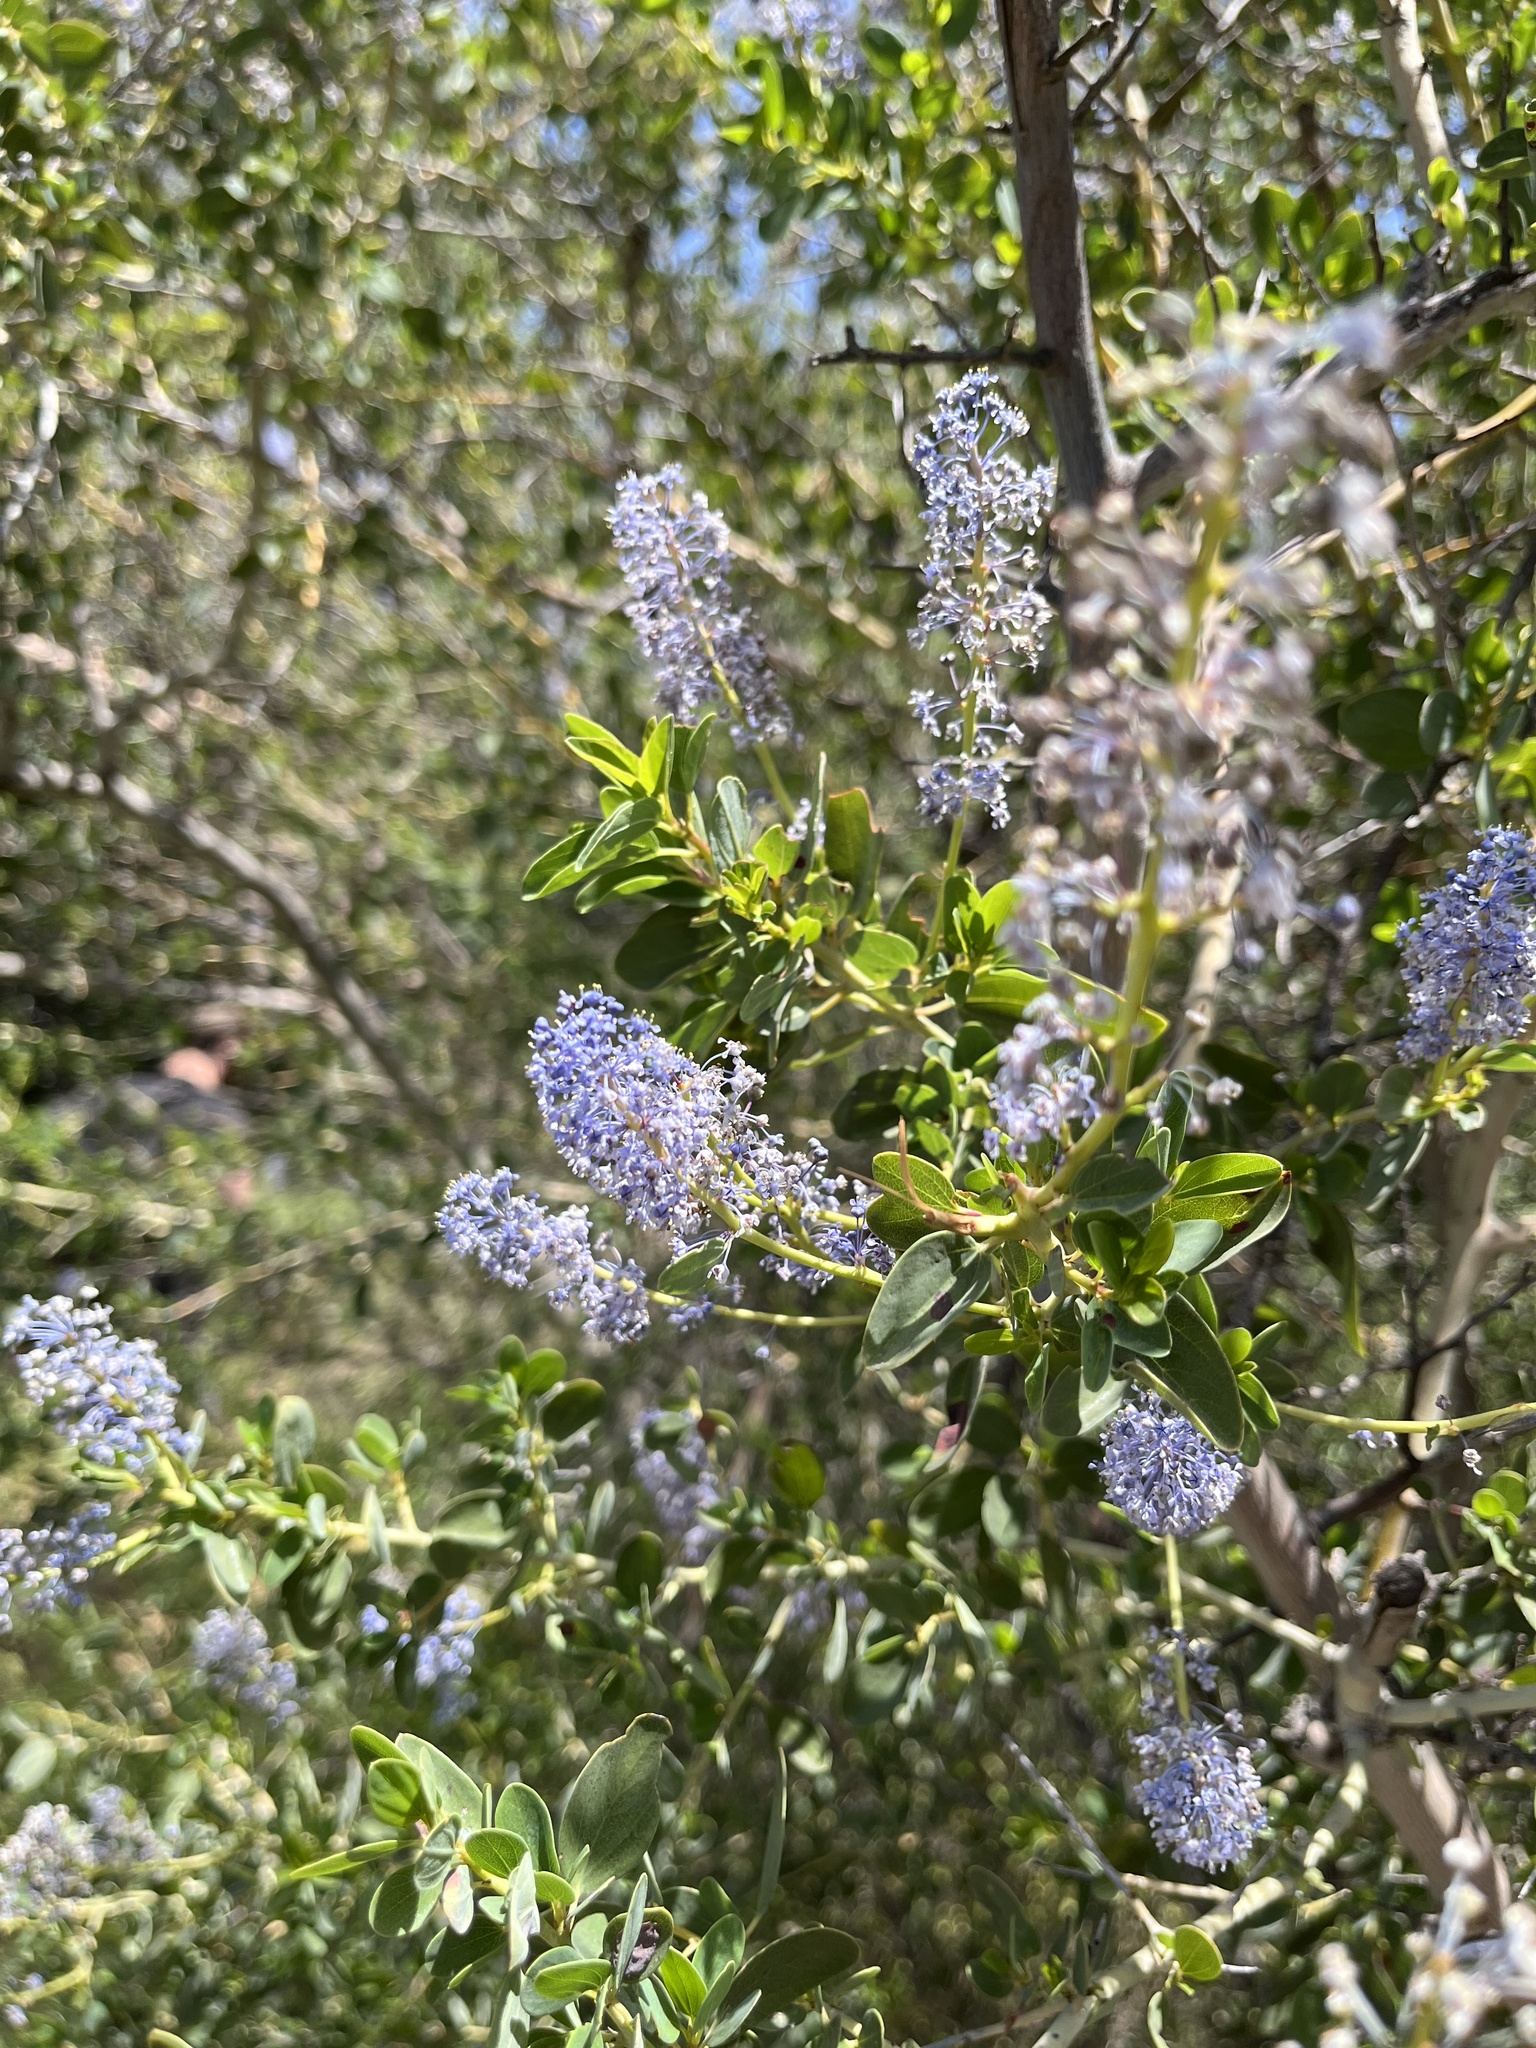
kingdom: Plantae
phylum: Tracheophyta
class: Magnoliopsida
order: Rosales
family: Rhamnaceae
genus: Ceanothus
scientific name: Ceanothus leucodermis
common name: Chaparral whitethorn
